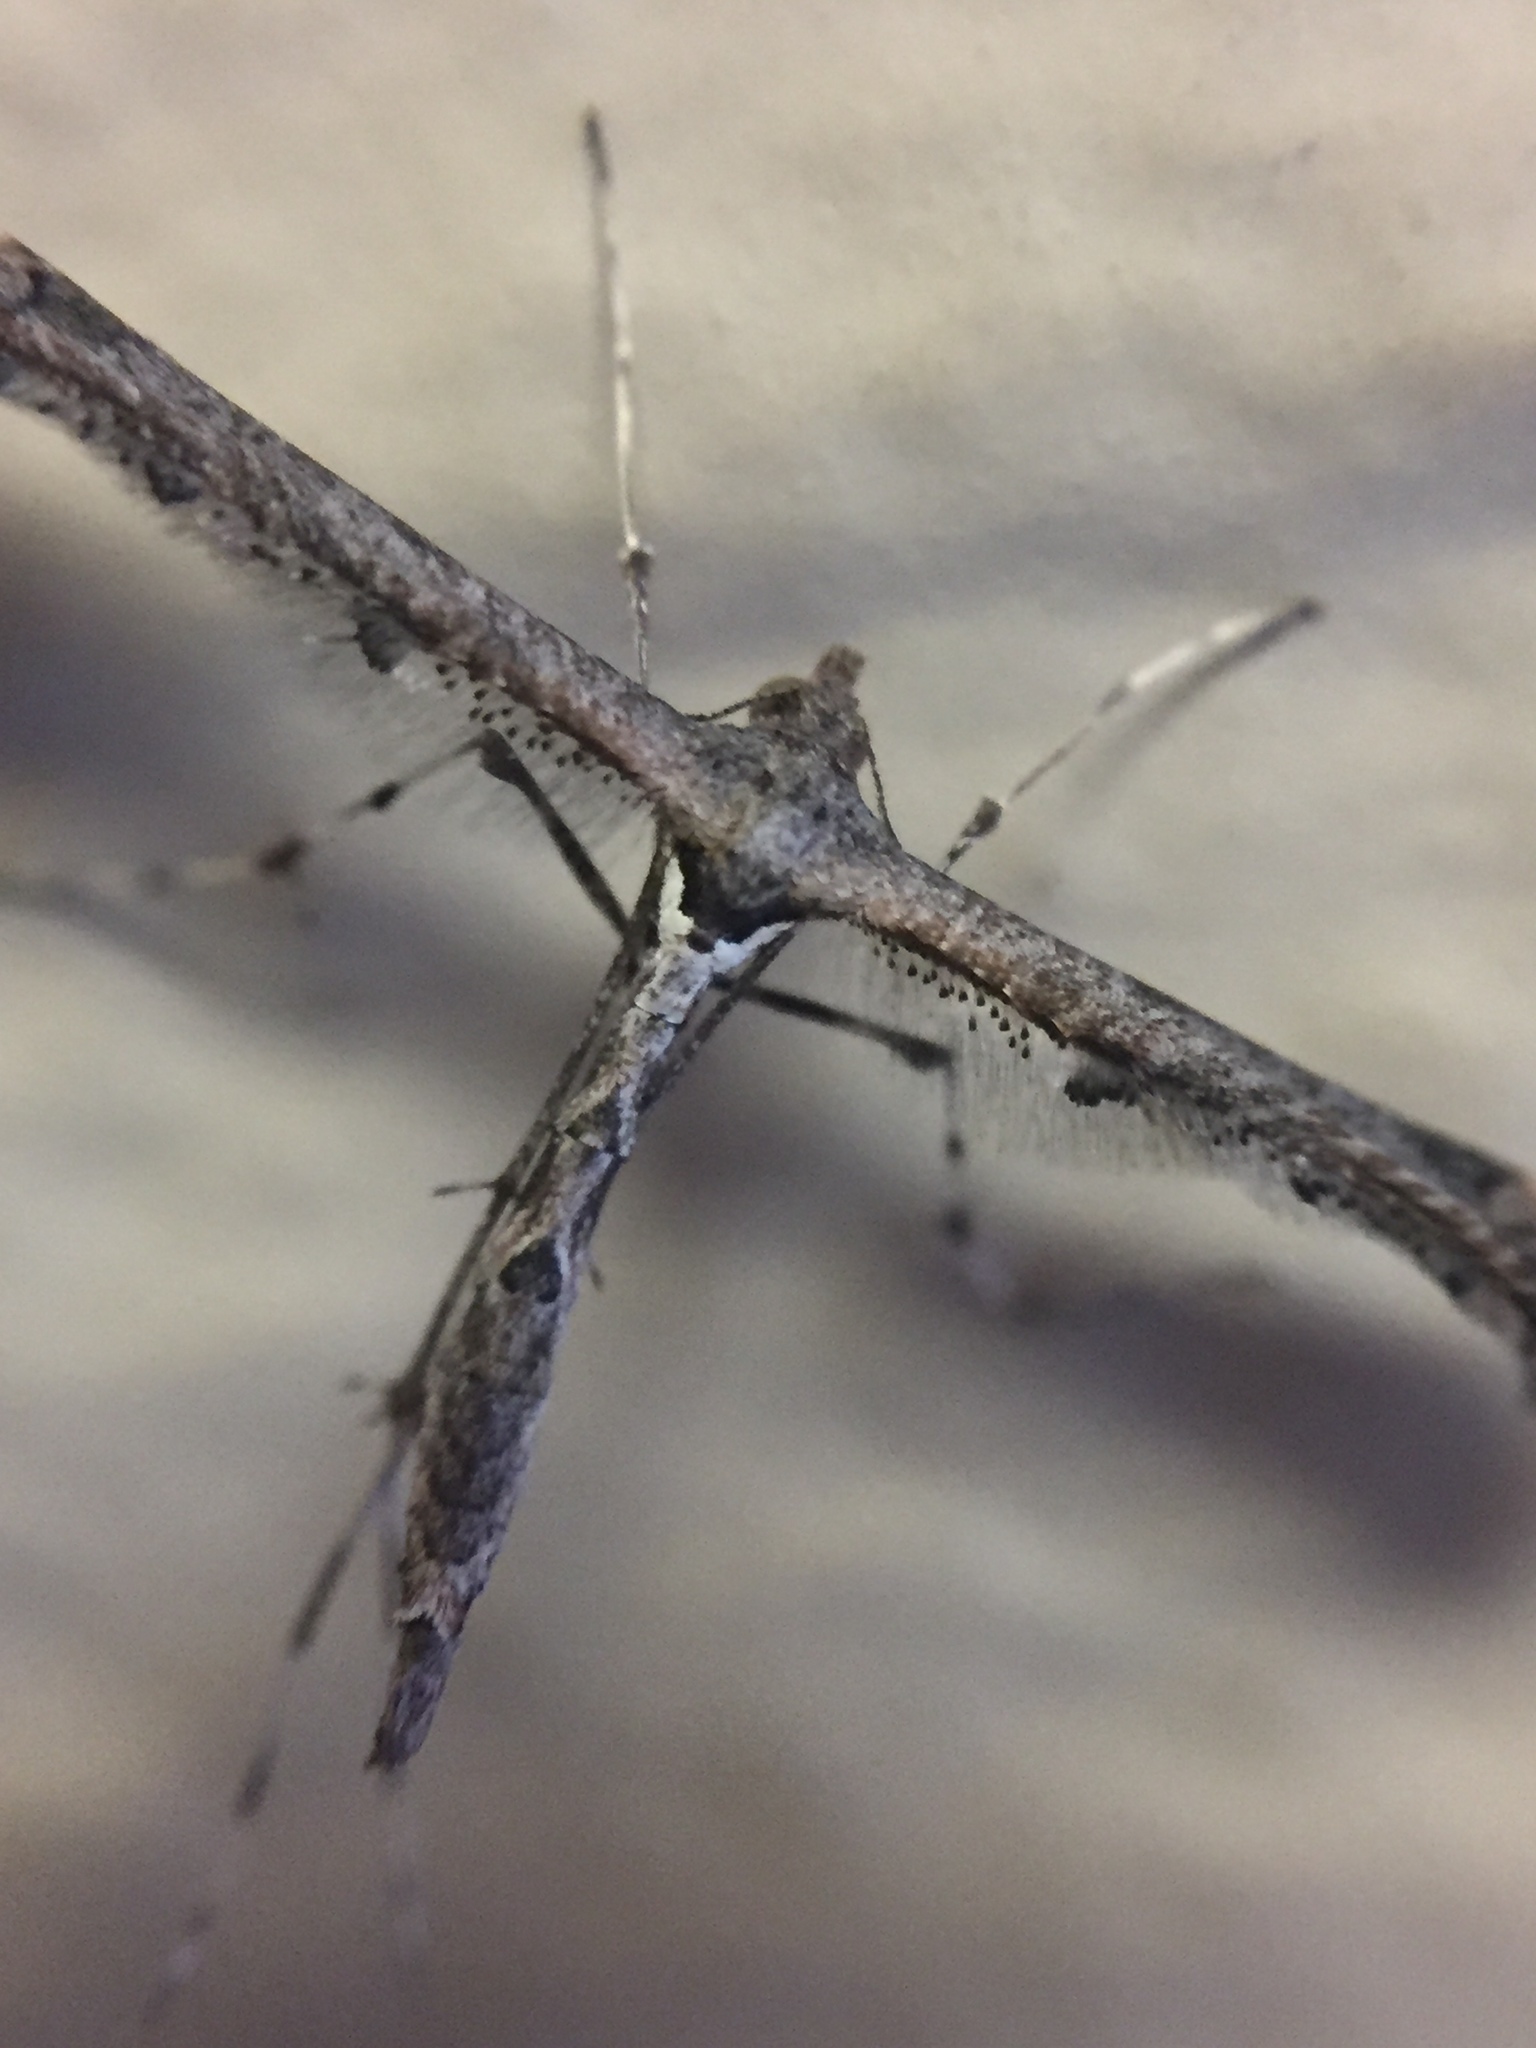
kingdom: Animalia
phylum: Arthropoda
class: Insecta
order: Lepidoptera
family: Pterophoridae
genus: Anstenoptilia
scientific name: Anstenoptilia marmarodactyla
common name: Moth
